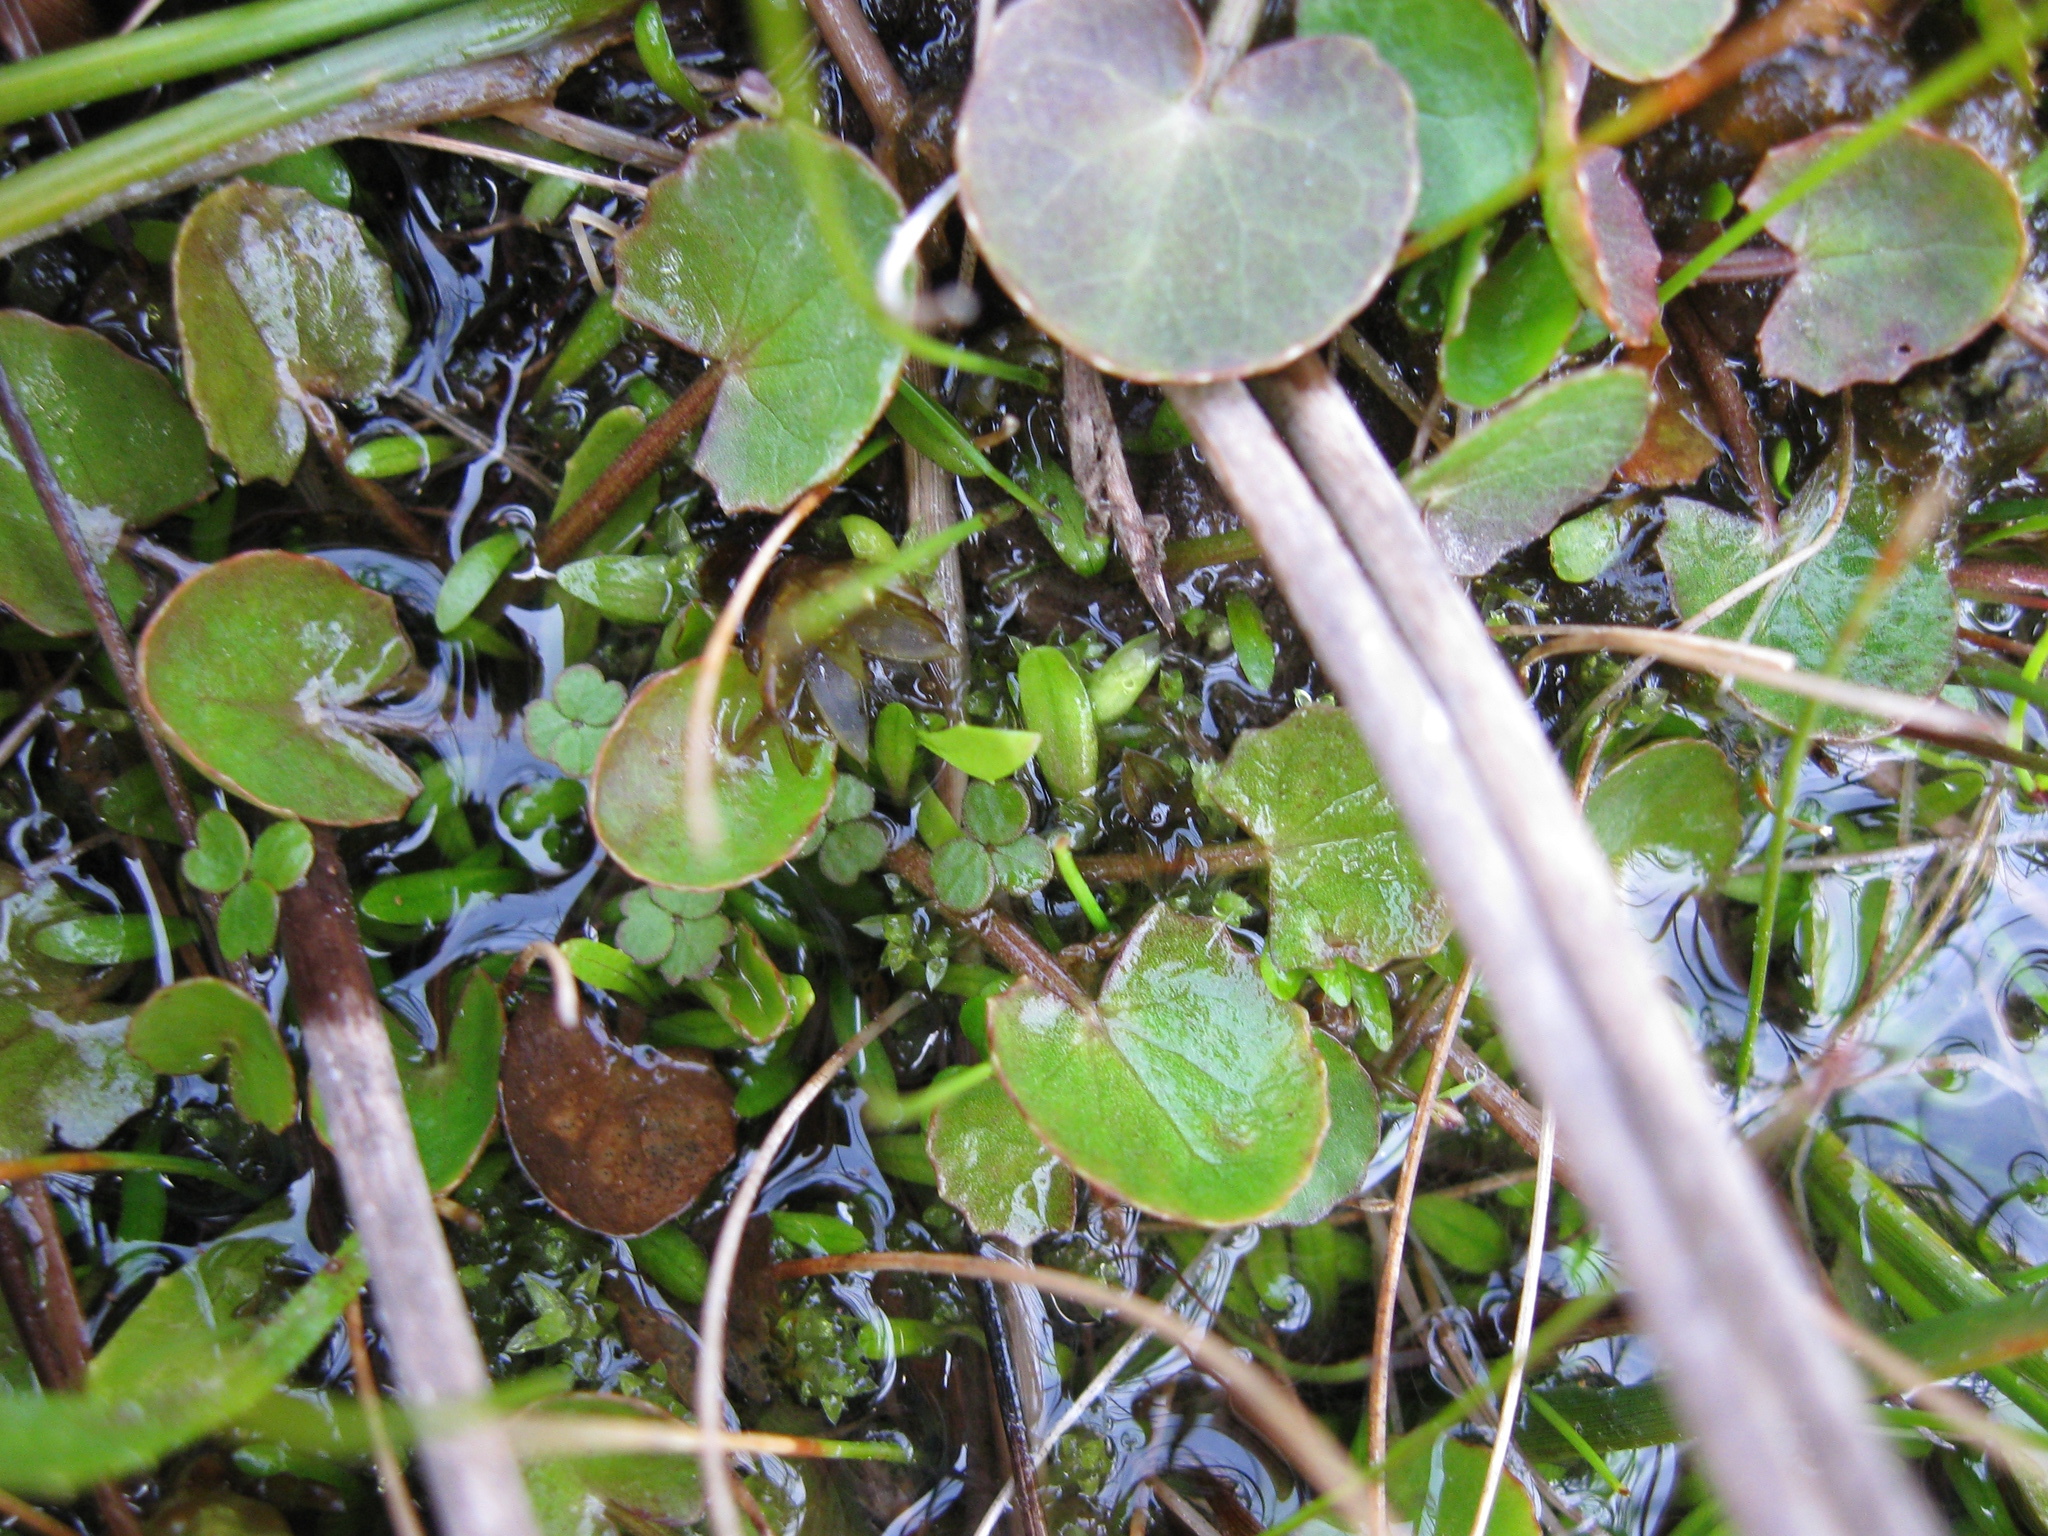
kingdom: Plantae
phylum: Tracheophyta
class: Magnoliopsida
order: Apiales
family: Apiaceae
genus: Centella
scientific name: Centella uniflora
